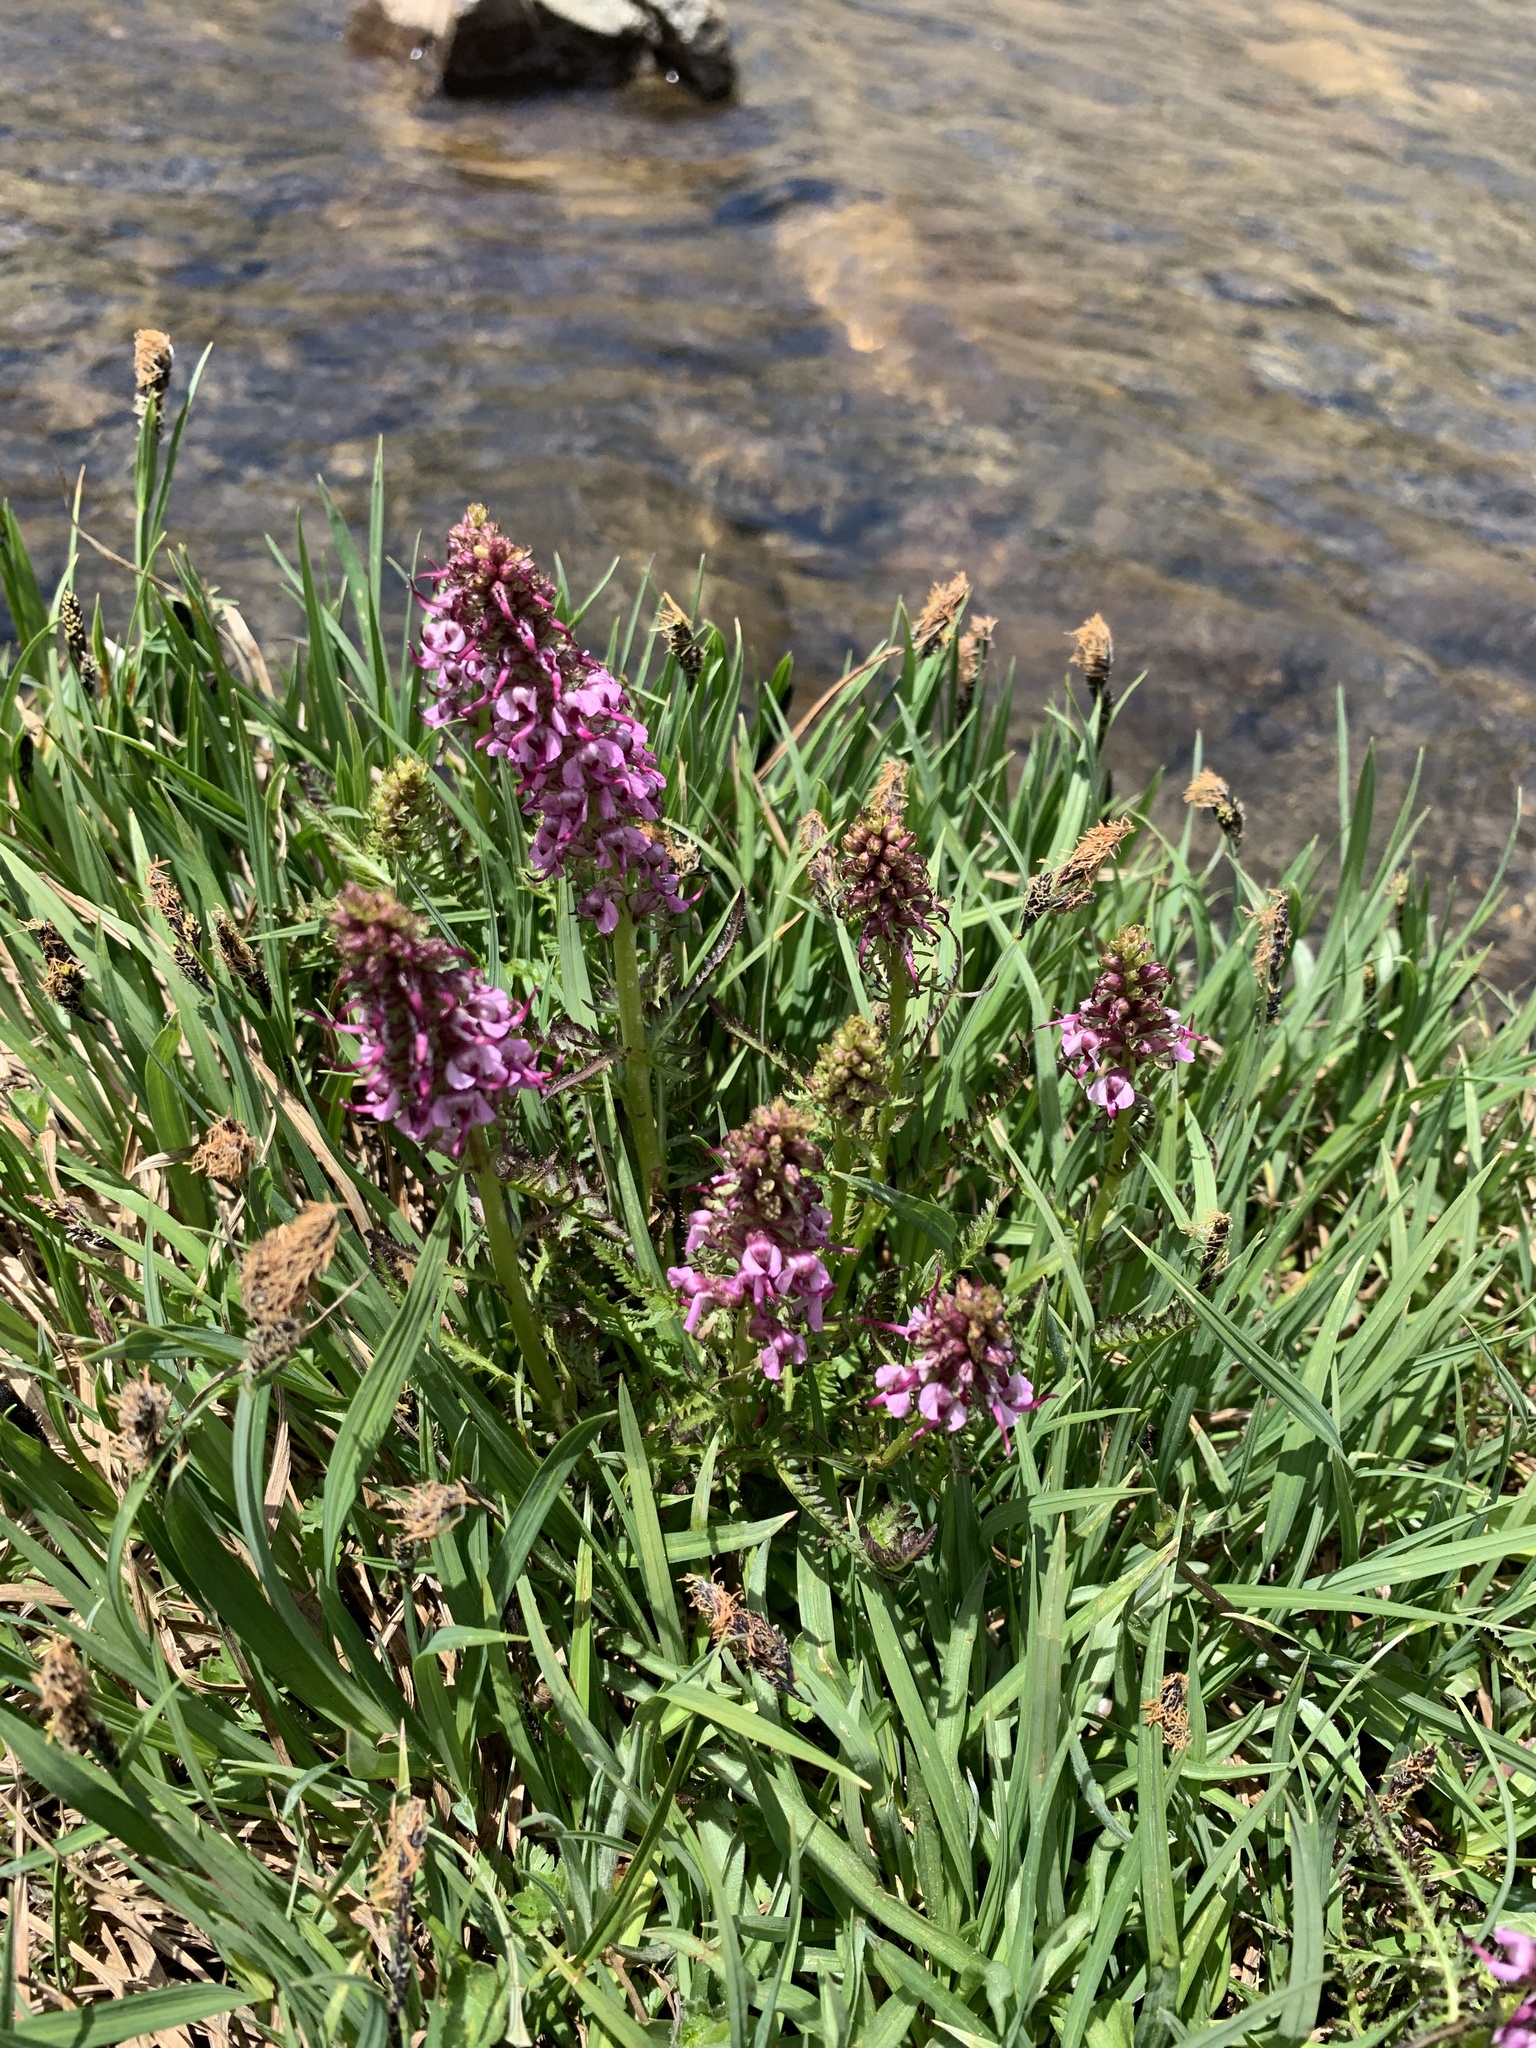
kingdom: Plantae
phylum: Tracheophyta
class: Magnoliopsida
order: Lamiales
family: Orobanchaceae
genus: Pedicularis
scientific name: Pedicularis groenlandica
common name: Elephant's-head
